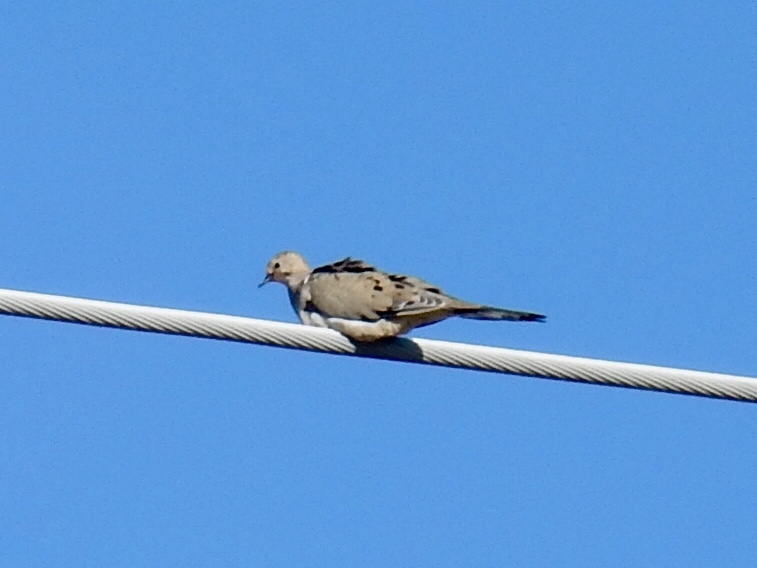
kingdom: Animalia
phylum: Chordata
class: Aves
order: Columbiformes
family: Columbidae
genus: Zenaida
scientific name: Zenaida macroura
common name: Mourning dove
